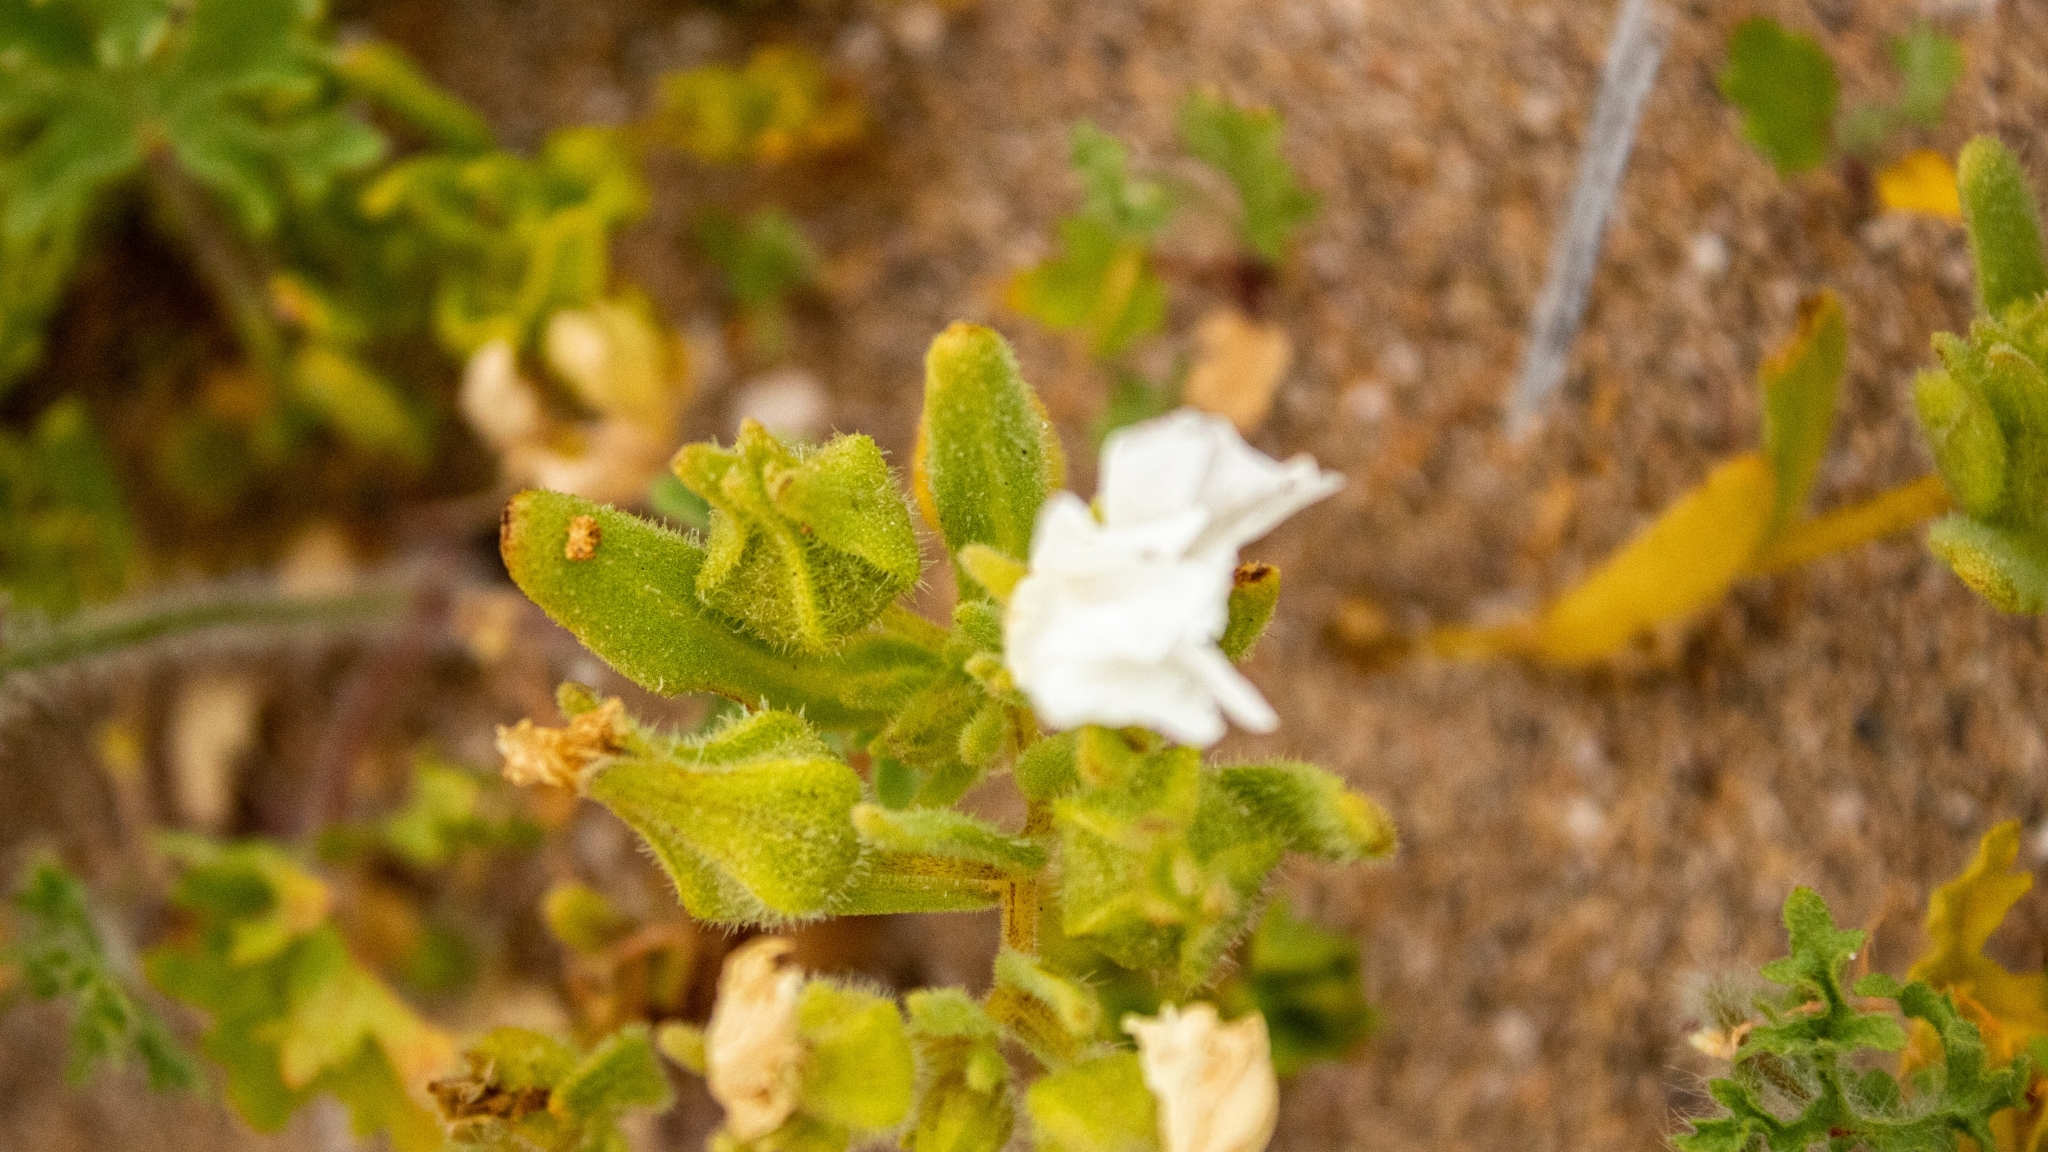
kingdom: Plantae
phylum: Tracheophyta
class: Magnoliopsida
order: Solanales
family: Solanaceae
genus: Nolana
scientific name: Nolana parviflora
